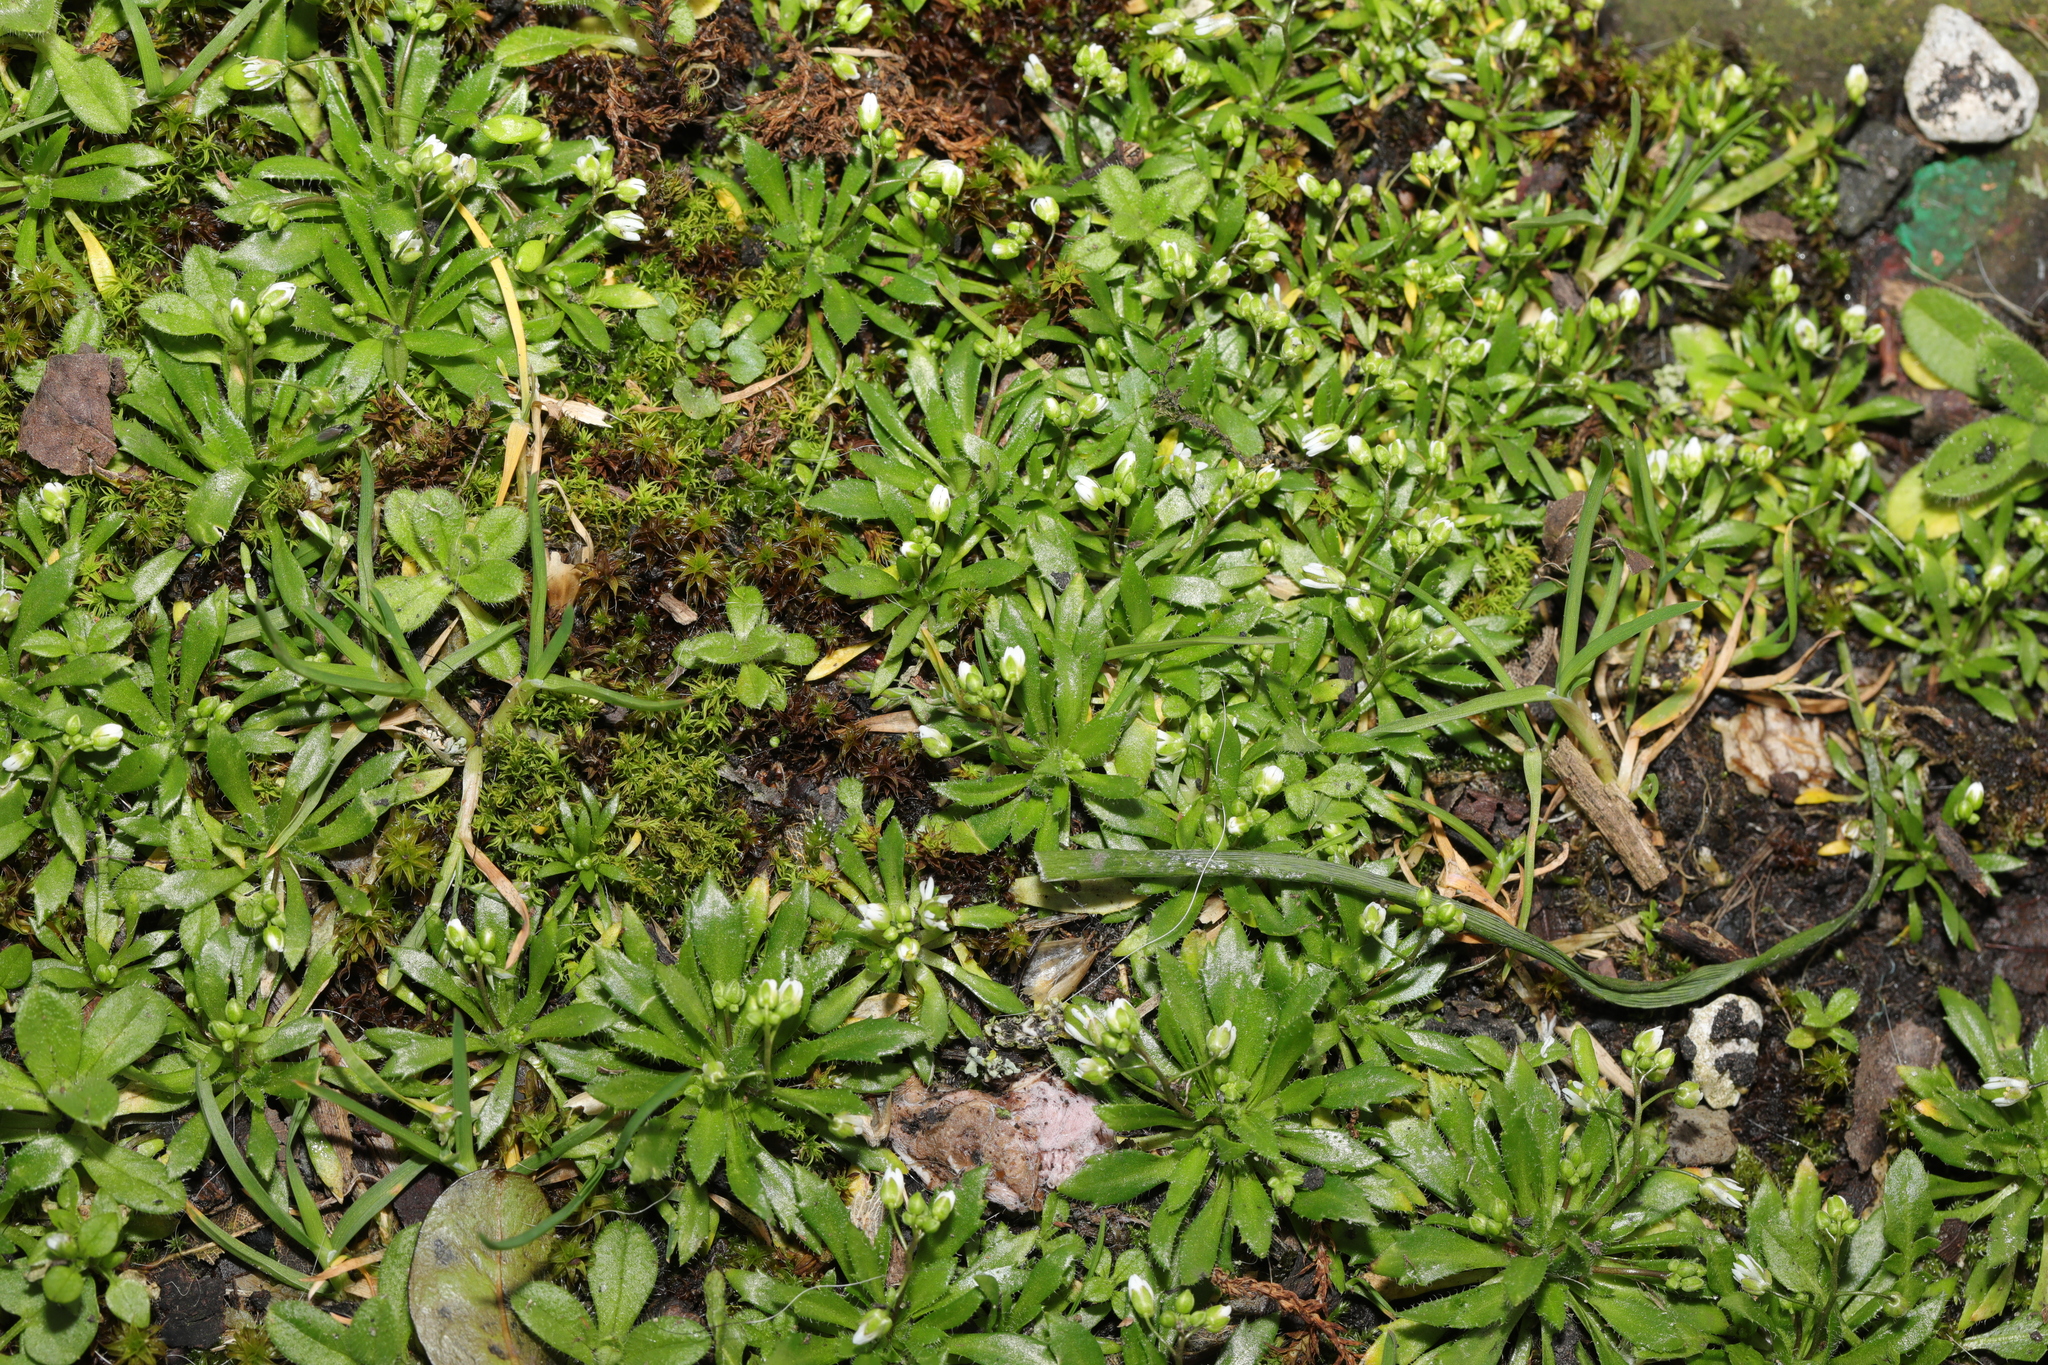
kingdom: Plantae
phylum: Tracheophyta
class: Magnoliopsida
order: Brassicales
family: Brassicaceae
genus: Draba
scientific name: Draba verna
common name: Spring draba
